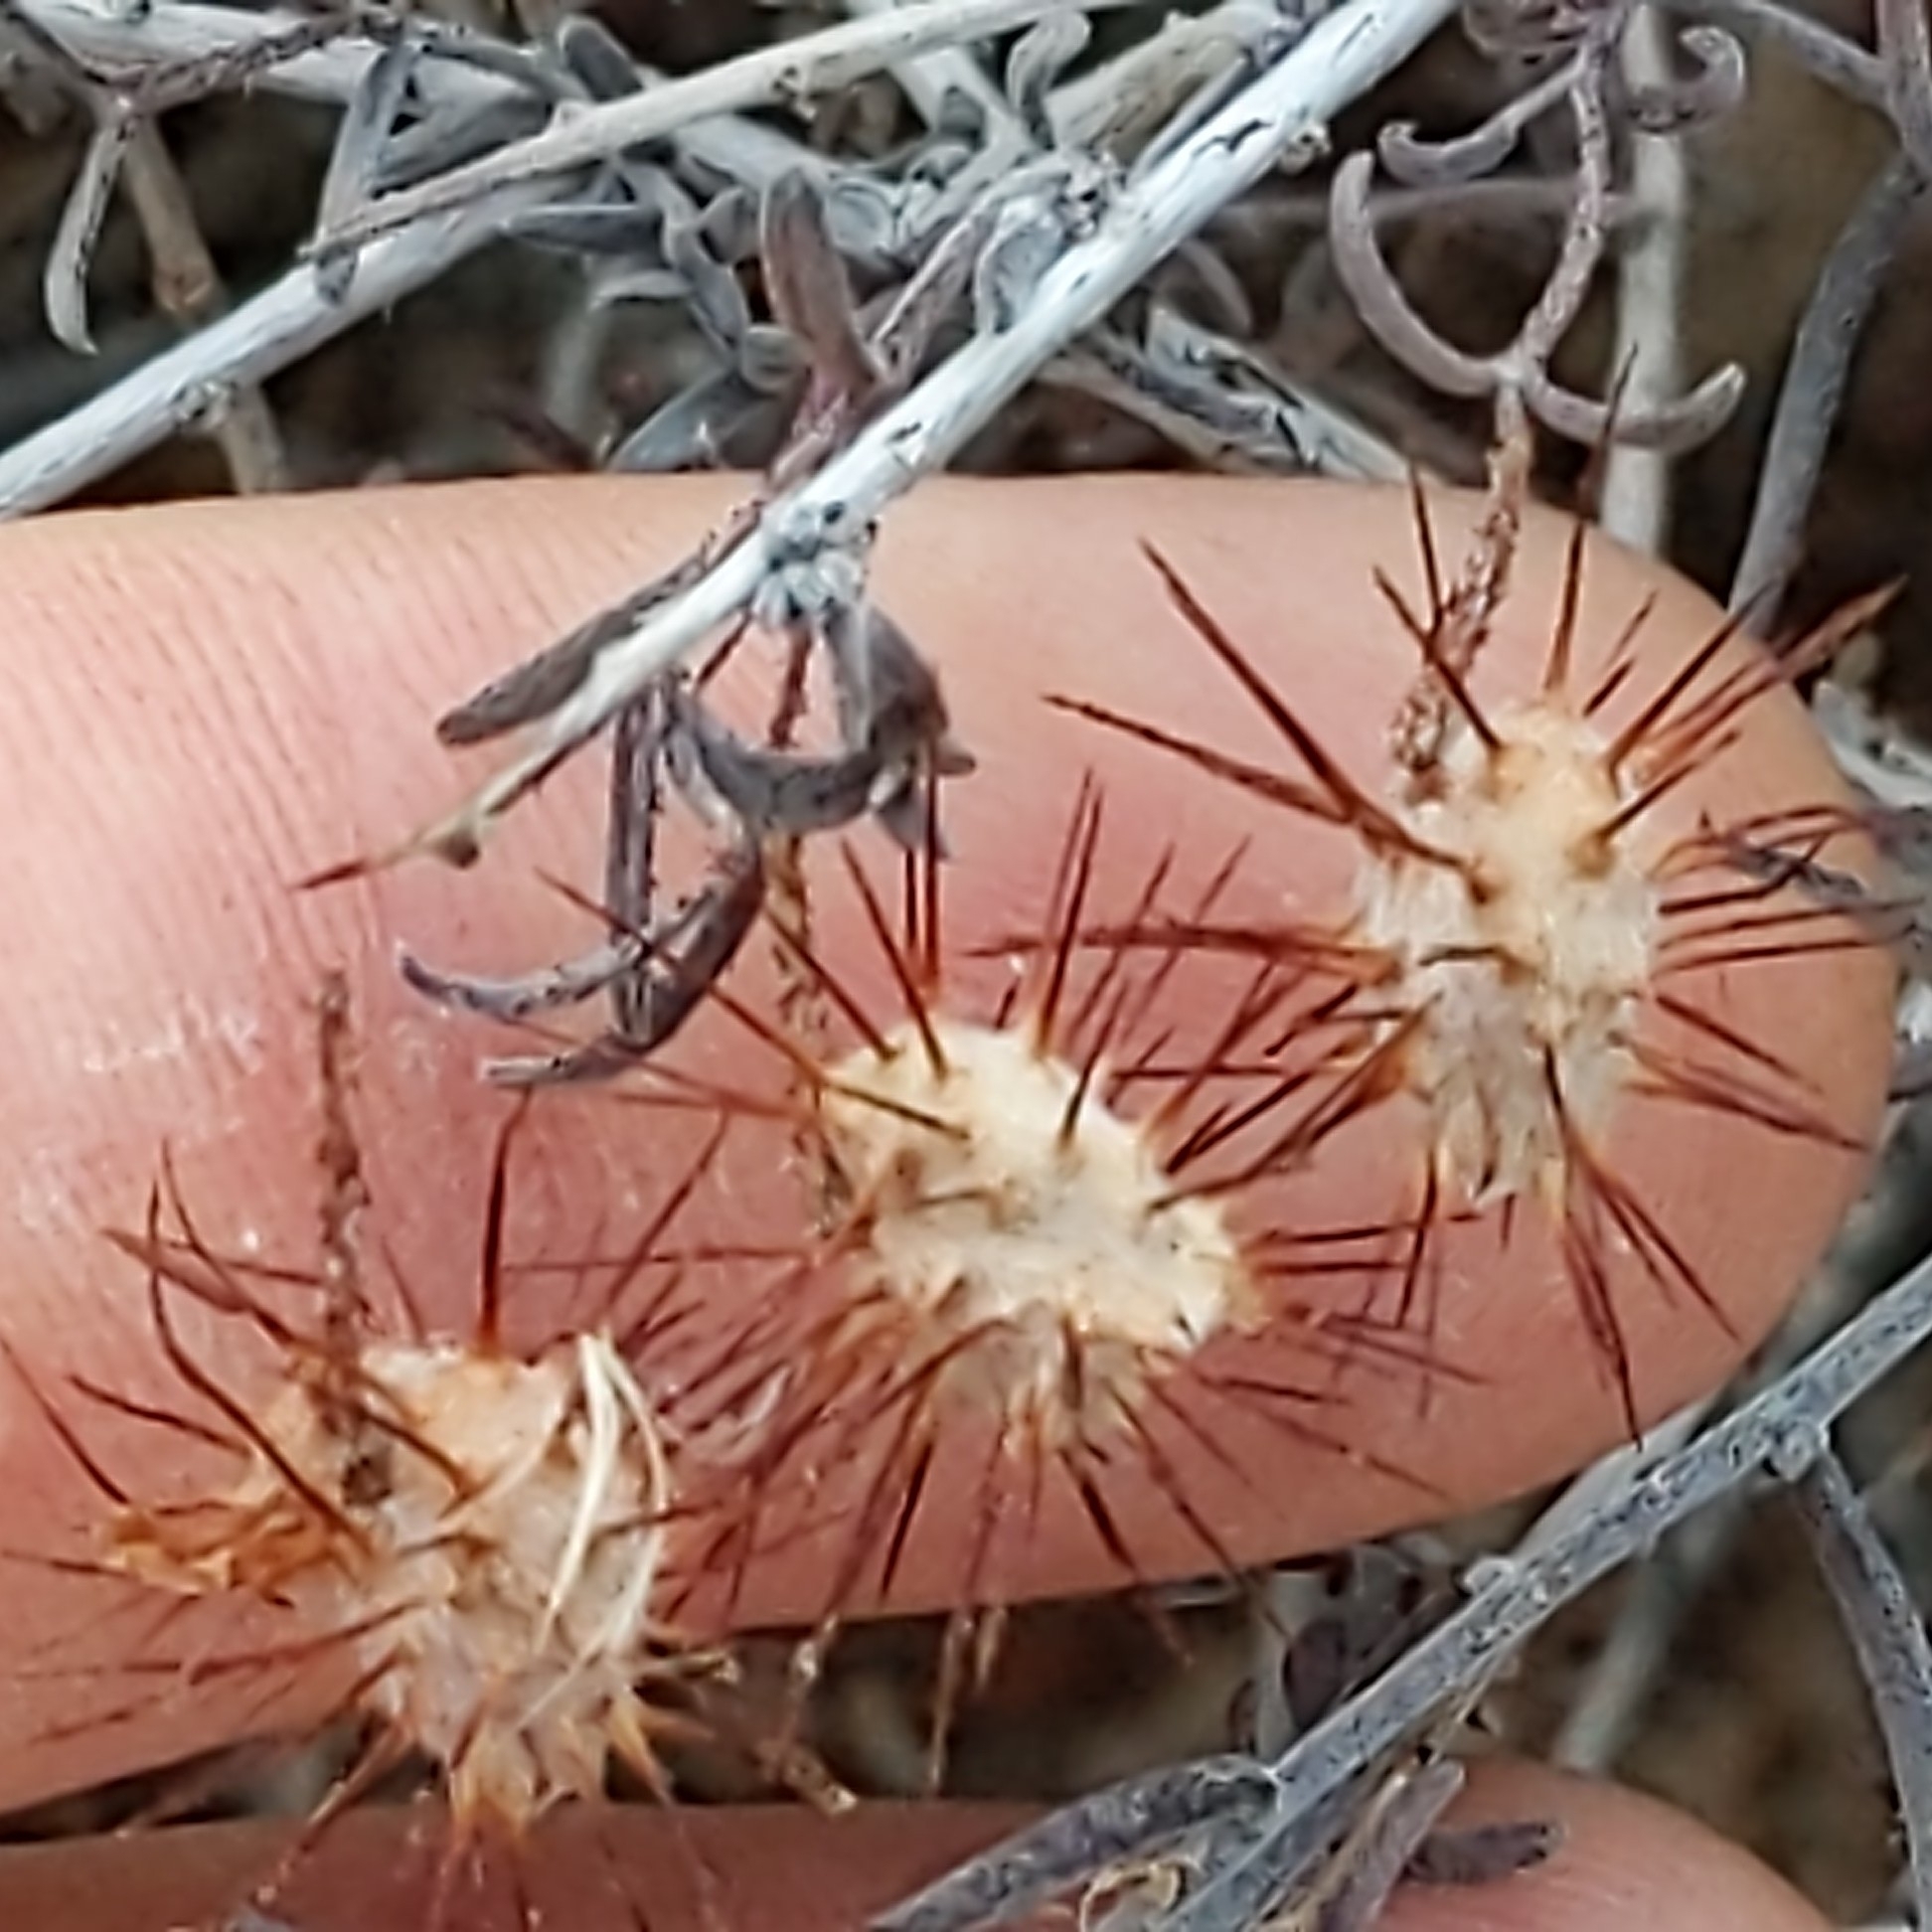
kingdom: Plantae
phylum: Tracheophyta
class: Magnoliopsida
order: Zygophyllales
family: Krameriaceae
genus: Krameria
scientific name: Krameria erecta
